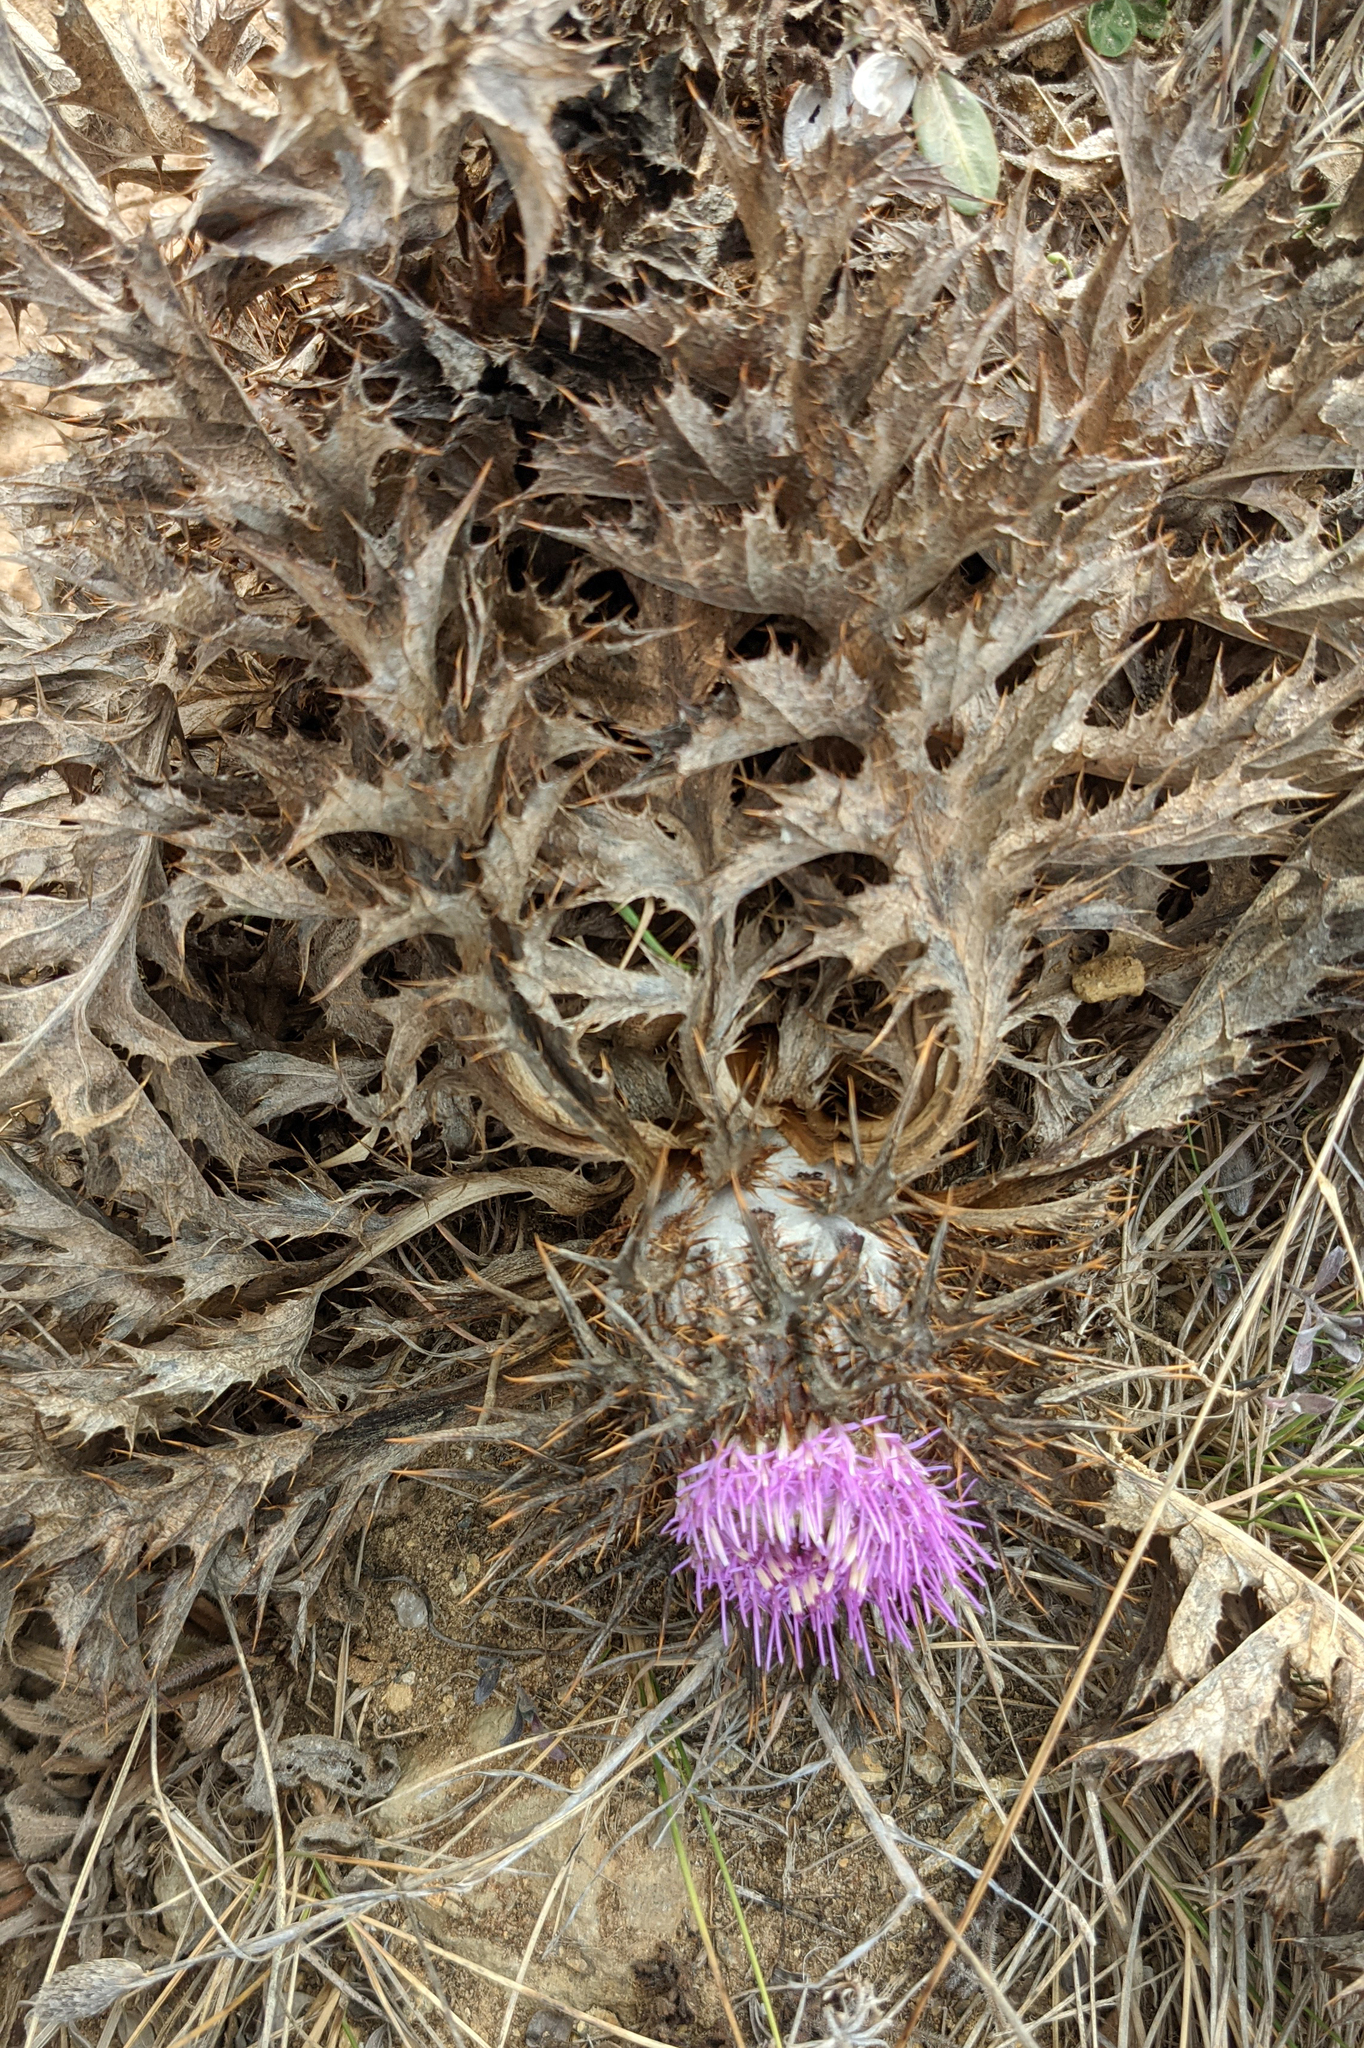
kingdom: Plantae
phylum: Tracheophyta
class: Magnoliopsida
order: Asterales
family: Asteraceae
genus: Chamaeleon
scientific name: Chamaeleon gummifer
